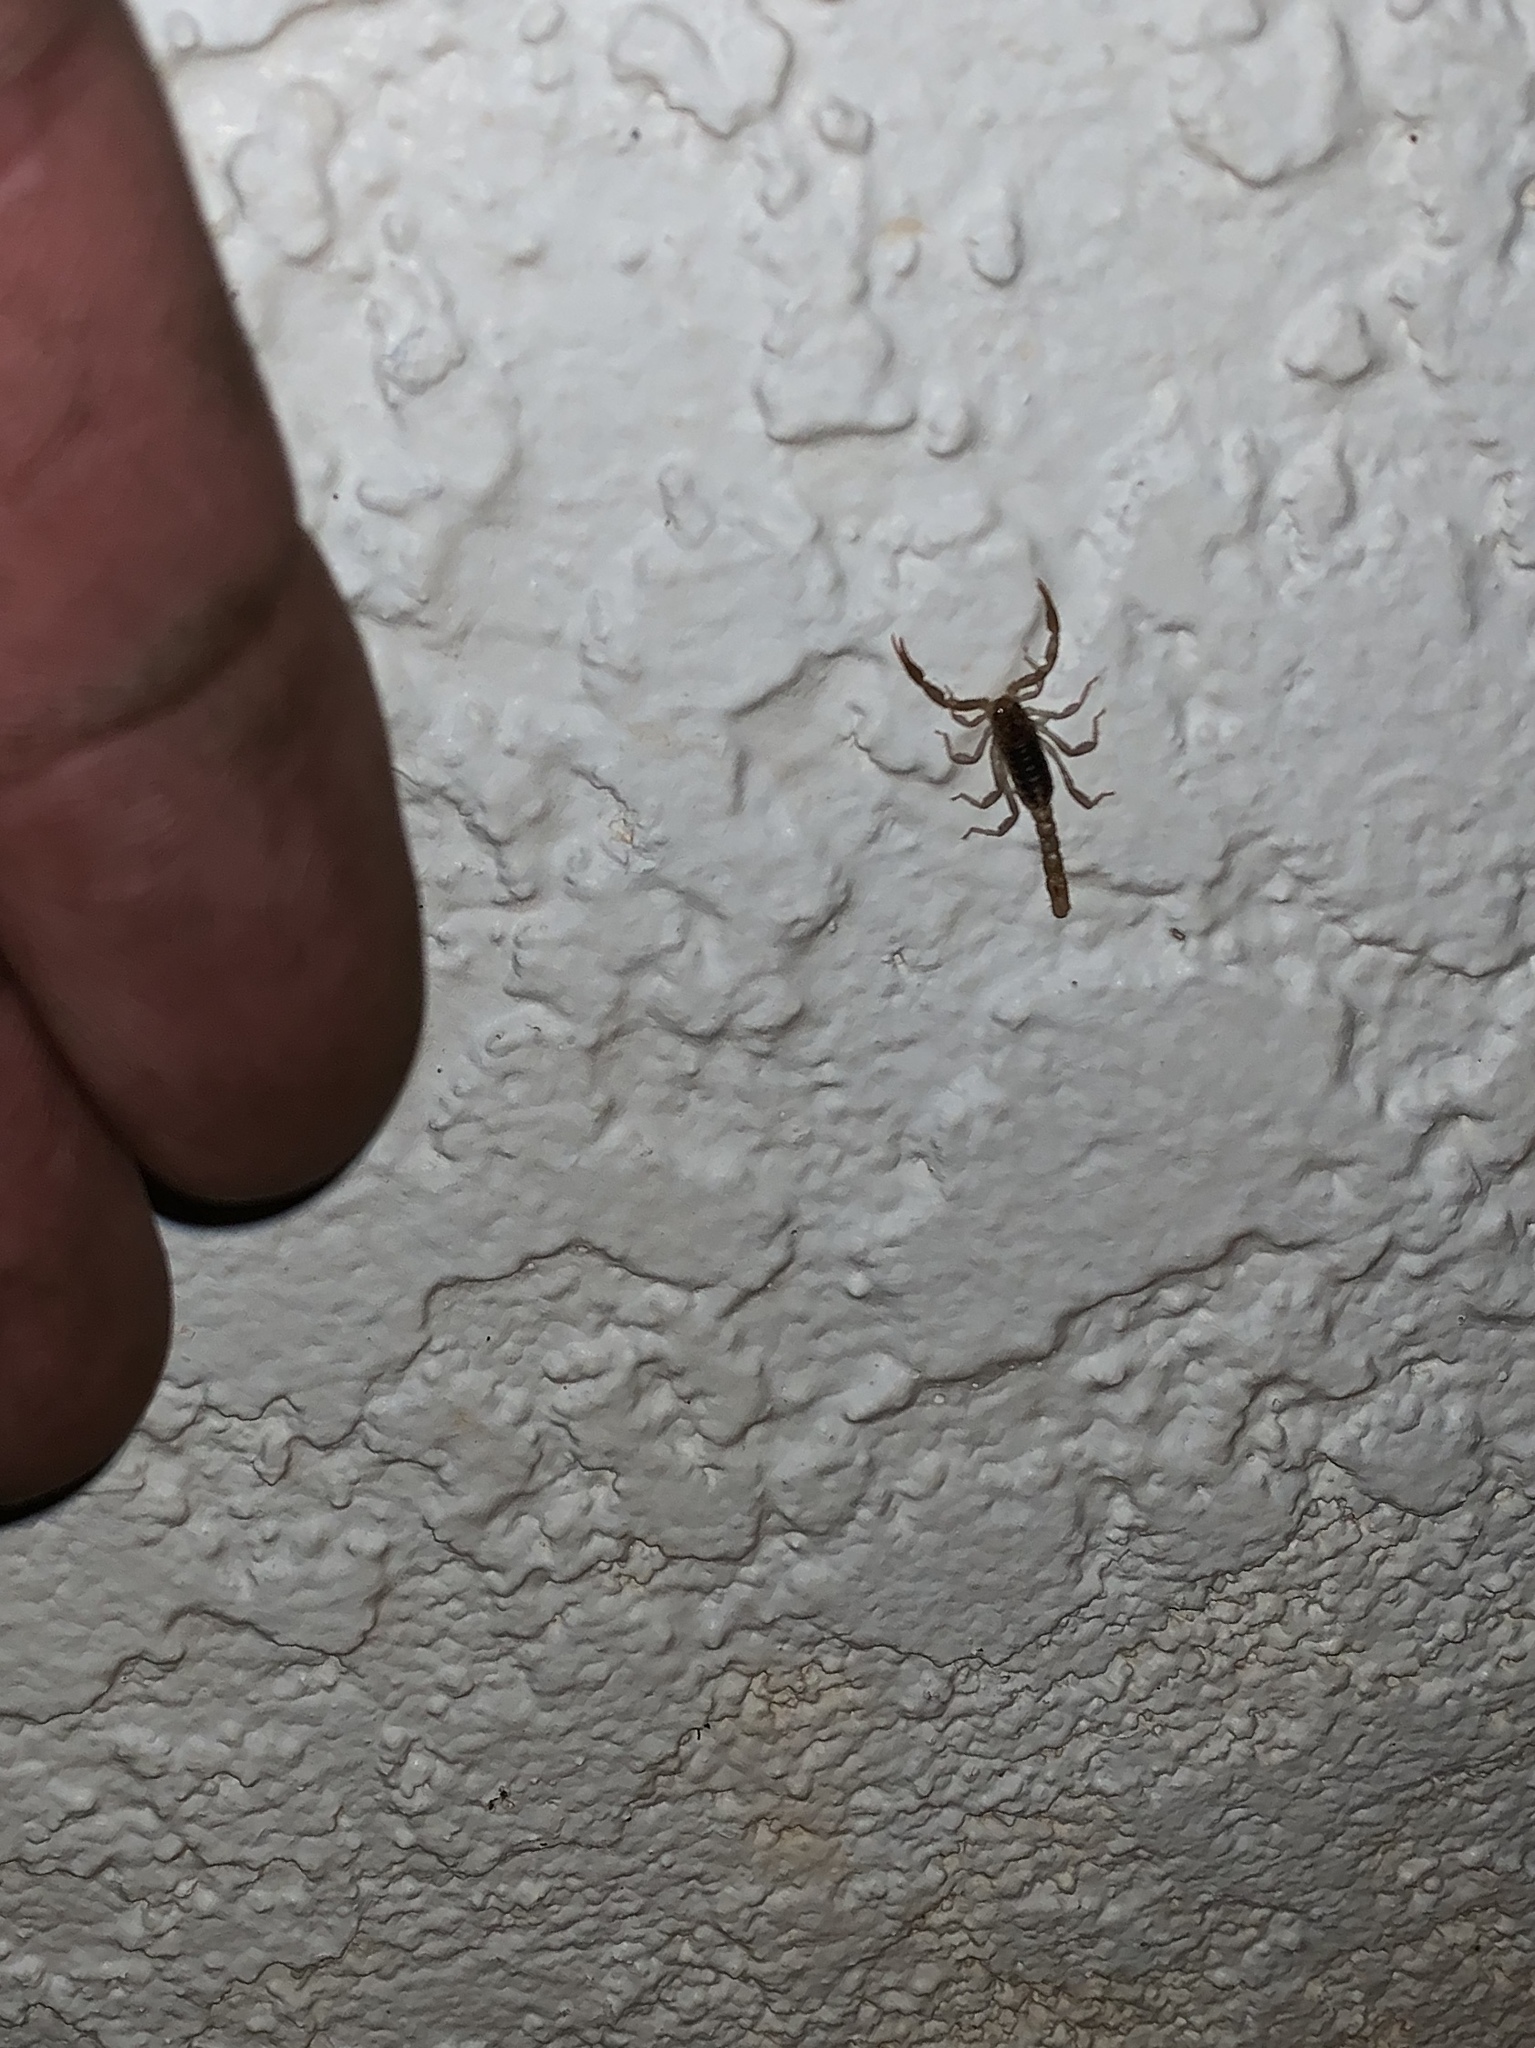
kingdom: Animalia
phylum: Arthropoda
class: Arachnida
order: Scorpiones
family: Vaejovidae
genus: Paravaejovis
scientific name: Paravaejovis spinigerus
